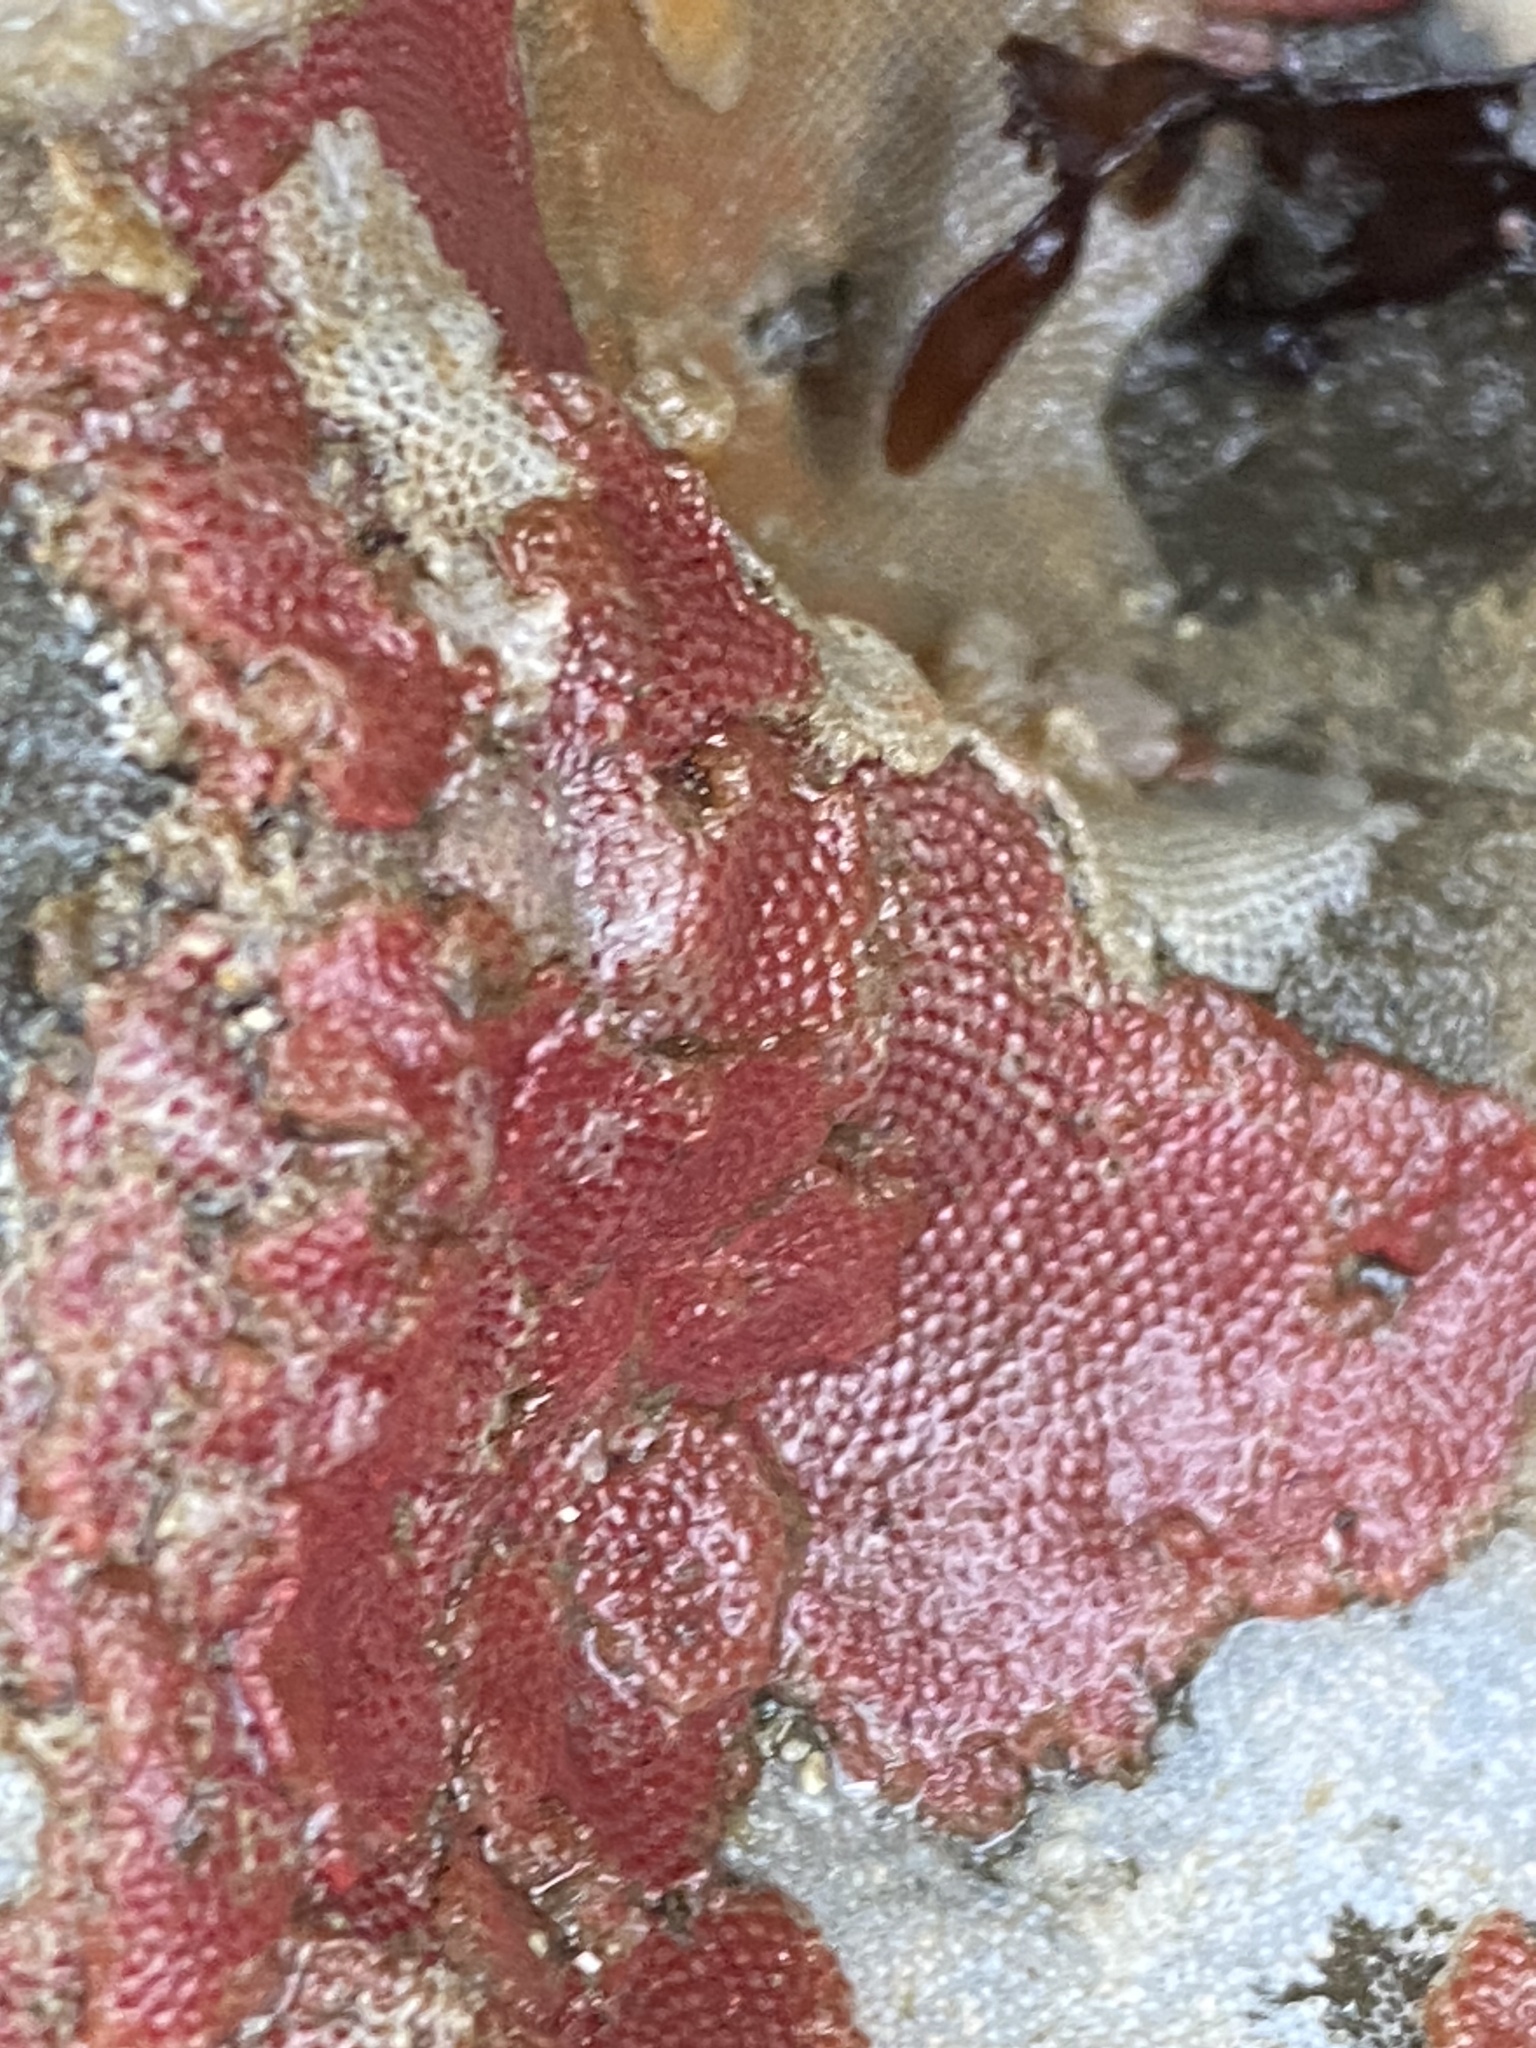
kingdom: Animalia
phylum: Bryozoa
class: Gymnolaemata
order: Cheilostomatida
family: Eurystomellidae
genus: Integripelta
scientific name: Integripelta bilabiata
